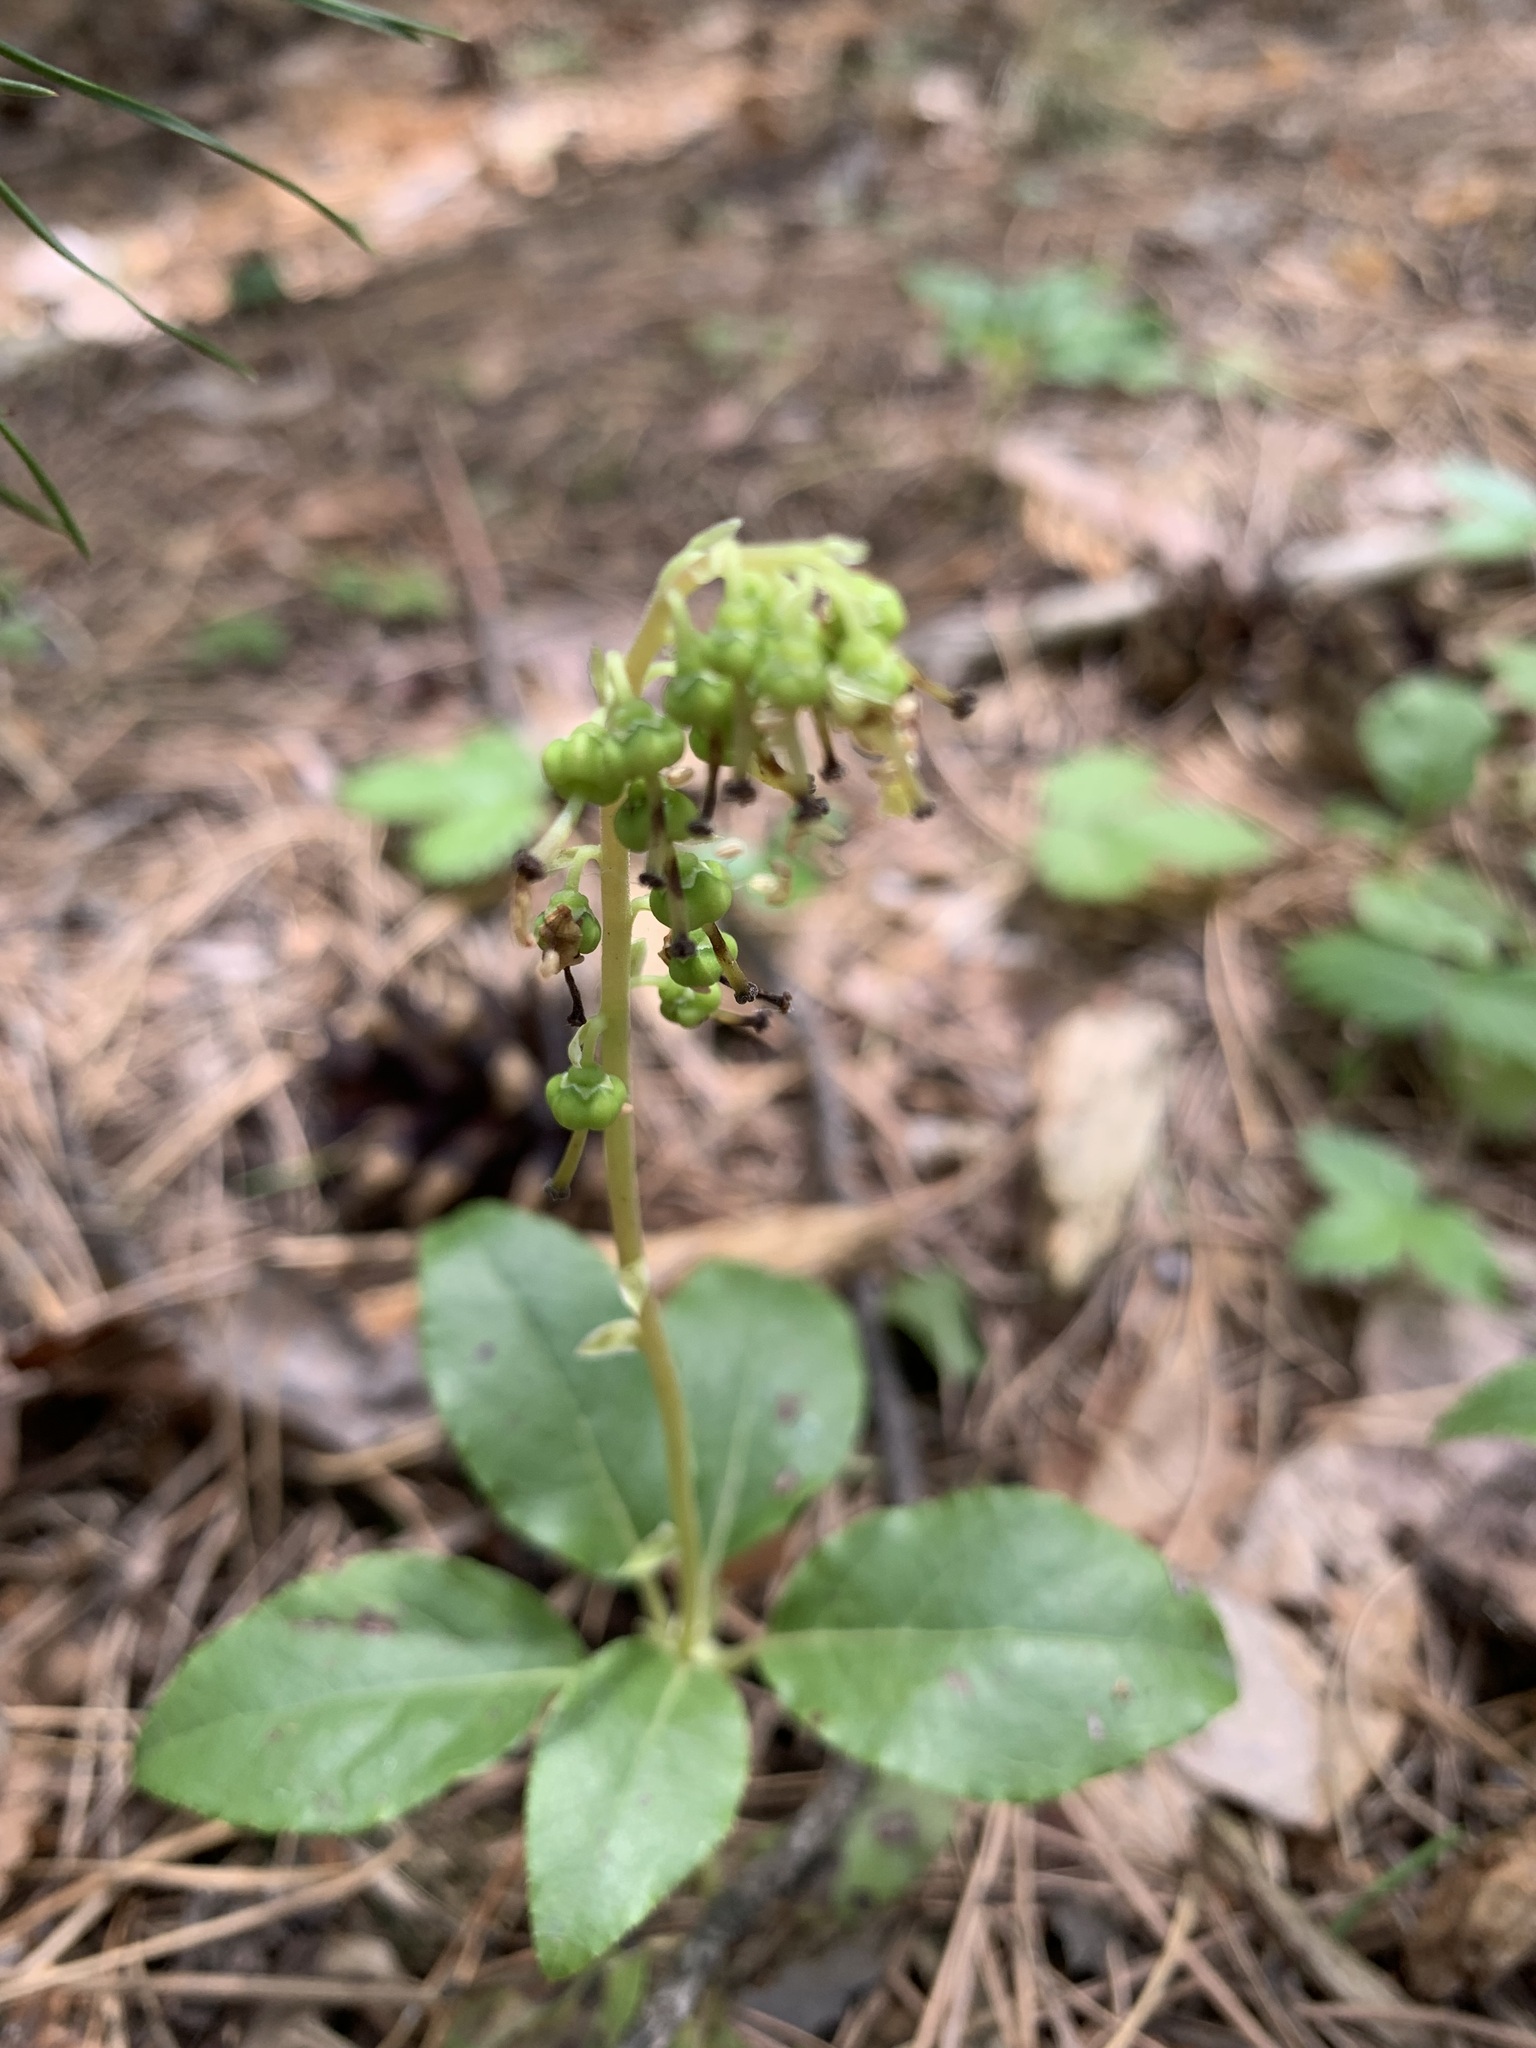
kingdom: Plantae
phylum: Tracheophyta
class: Magnoliopsida
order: Ericales
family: Ericaceae
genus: Orthilia
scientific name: Orthilia secunda
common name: One-sided orthilia
